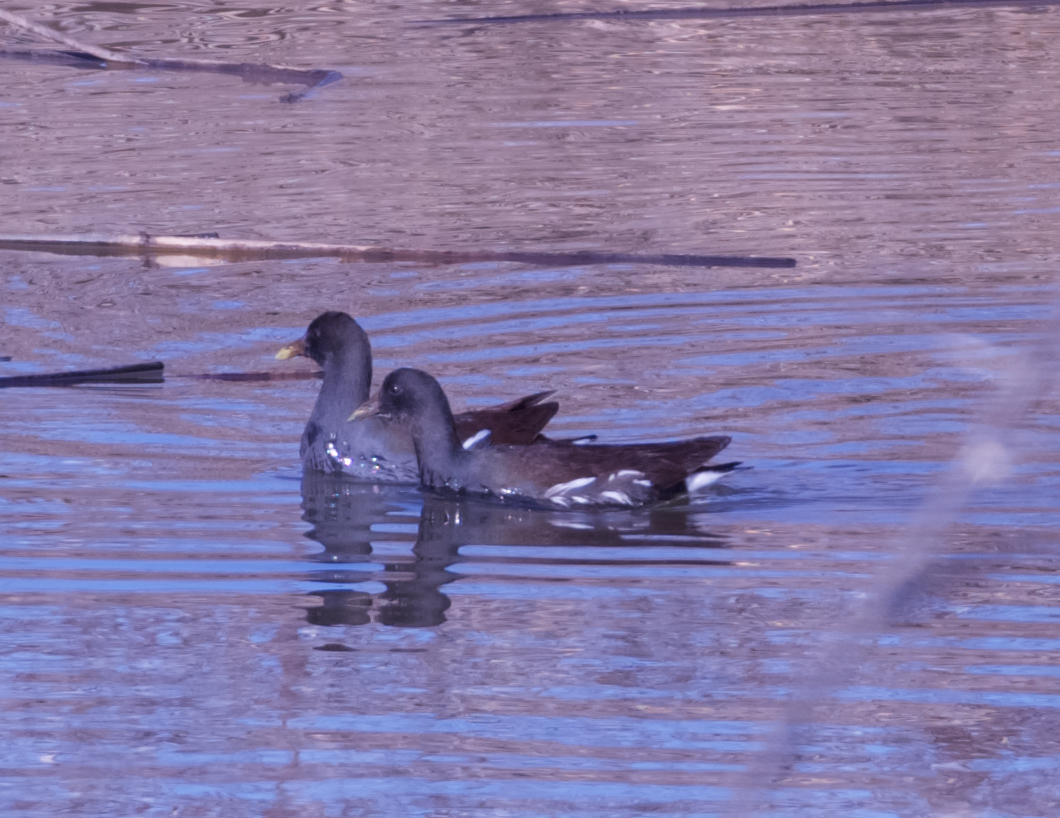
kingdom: Animalia
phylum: Chordata
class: Aves
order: Gruiformes
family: Rallidae
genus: Gallinula
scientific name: Gallinula chloropus
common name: Common moorhen
